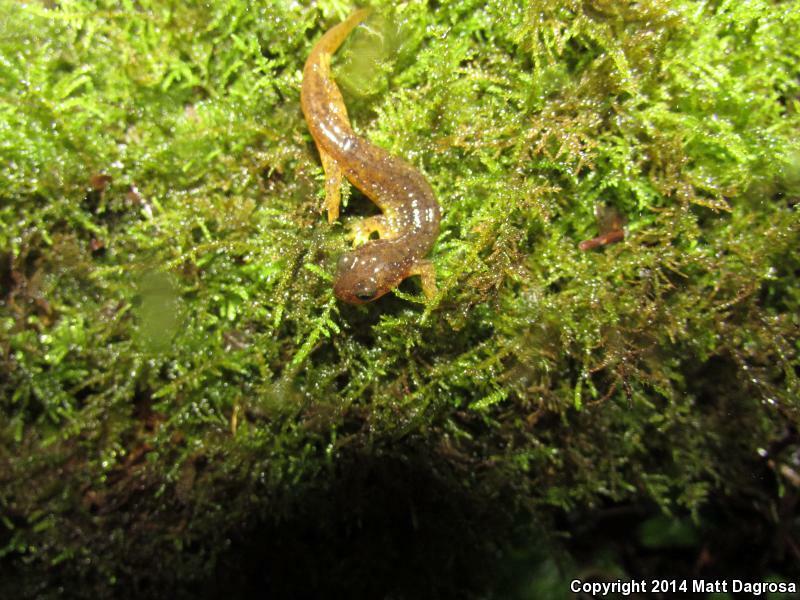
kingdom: Animalia
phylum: Chordata
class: Amphibia
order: Caudata
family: Rhyacotritonidae
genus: Rhyacotriton
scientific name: Rhyacotriton kezeri
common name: Columbia torrent salamander
